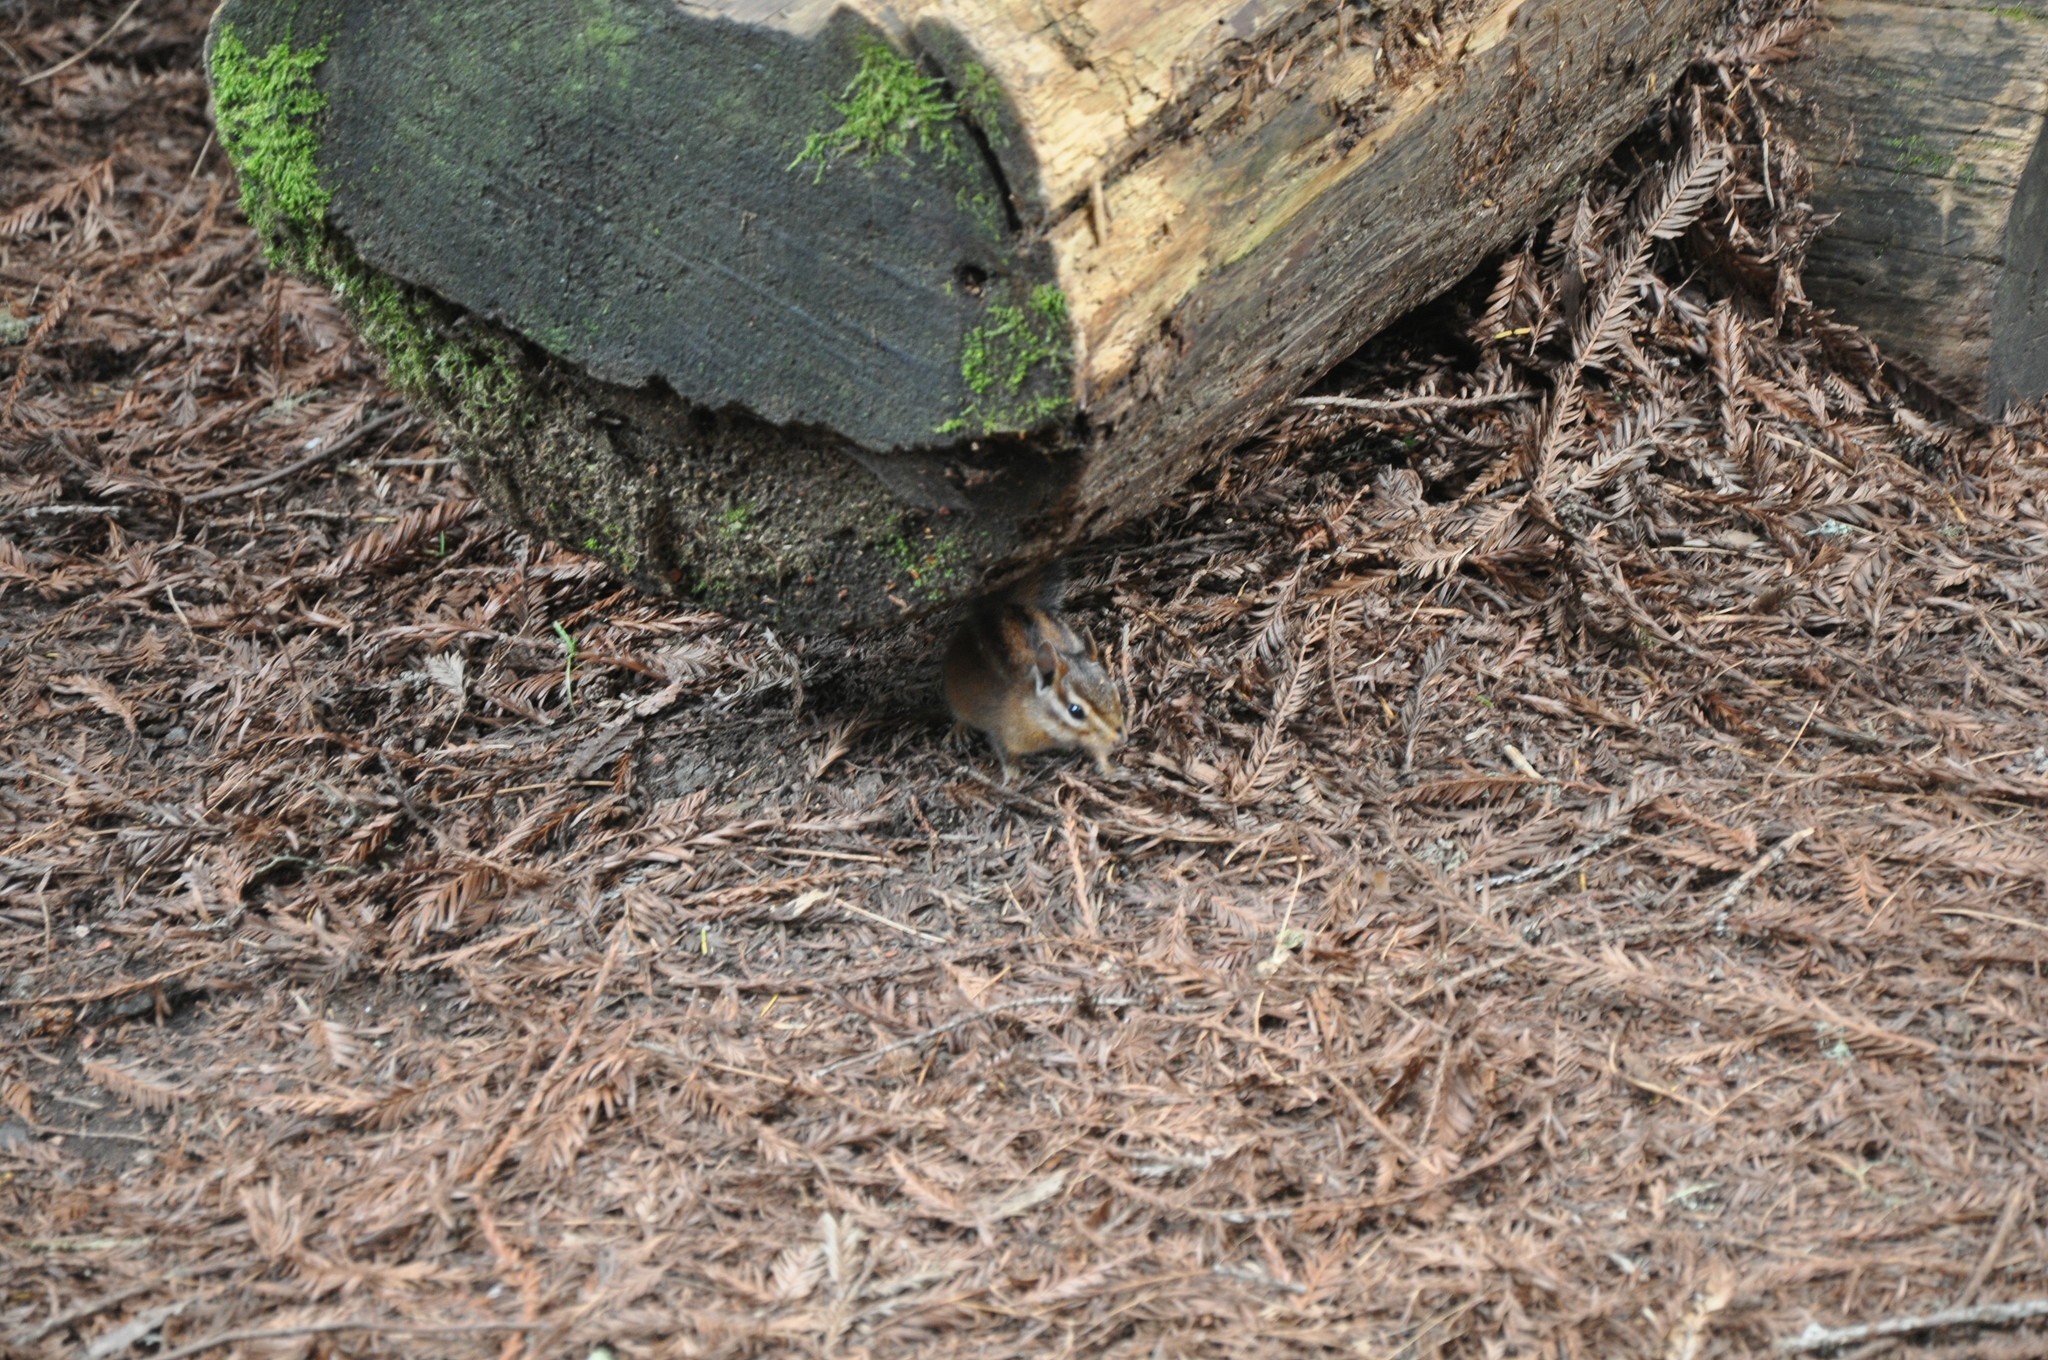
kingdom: Animalia
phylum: Chordata
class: Mammalia
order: Rodentia
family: Sciuridae
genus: Tamias
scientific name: Tamias sonomae
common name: Sonoma chipmunk
